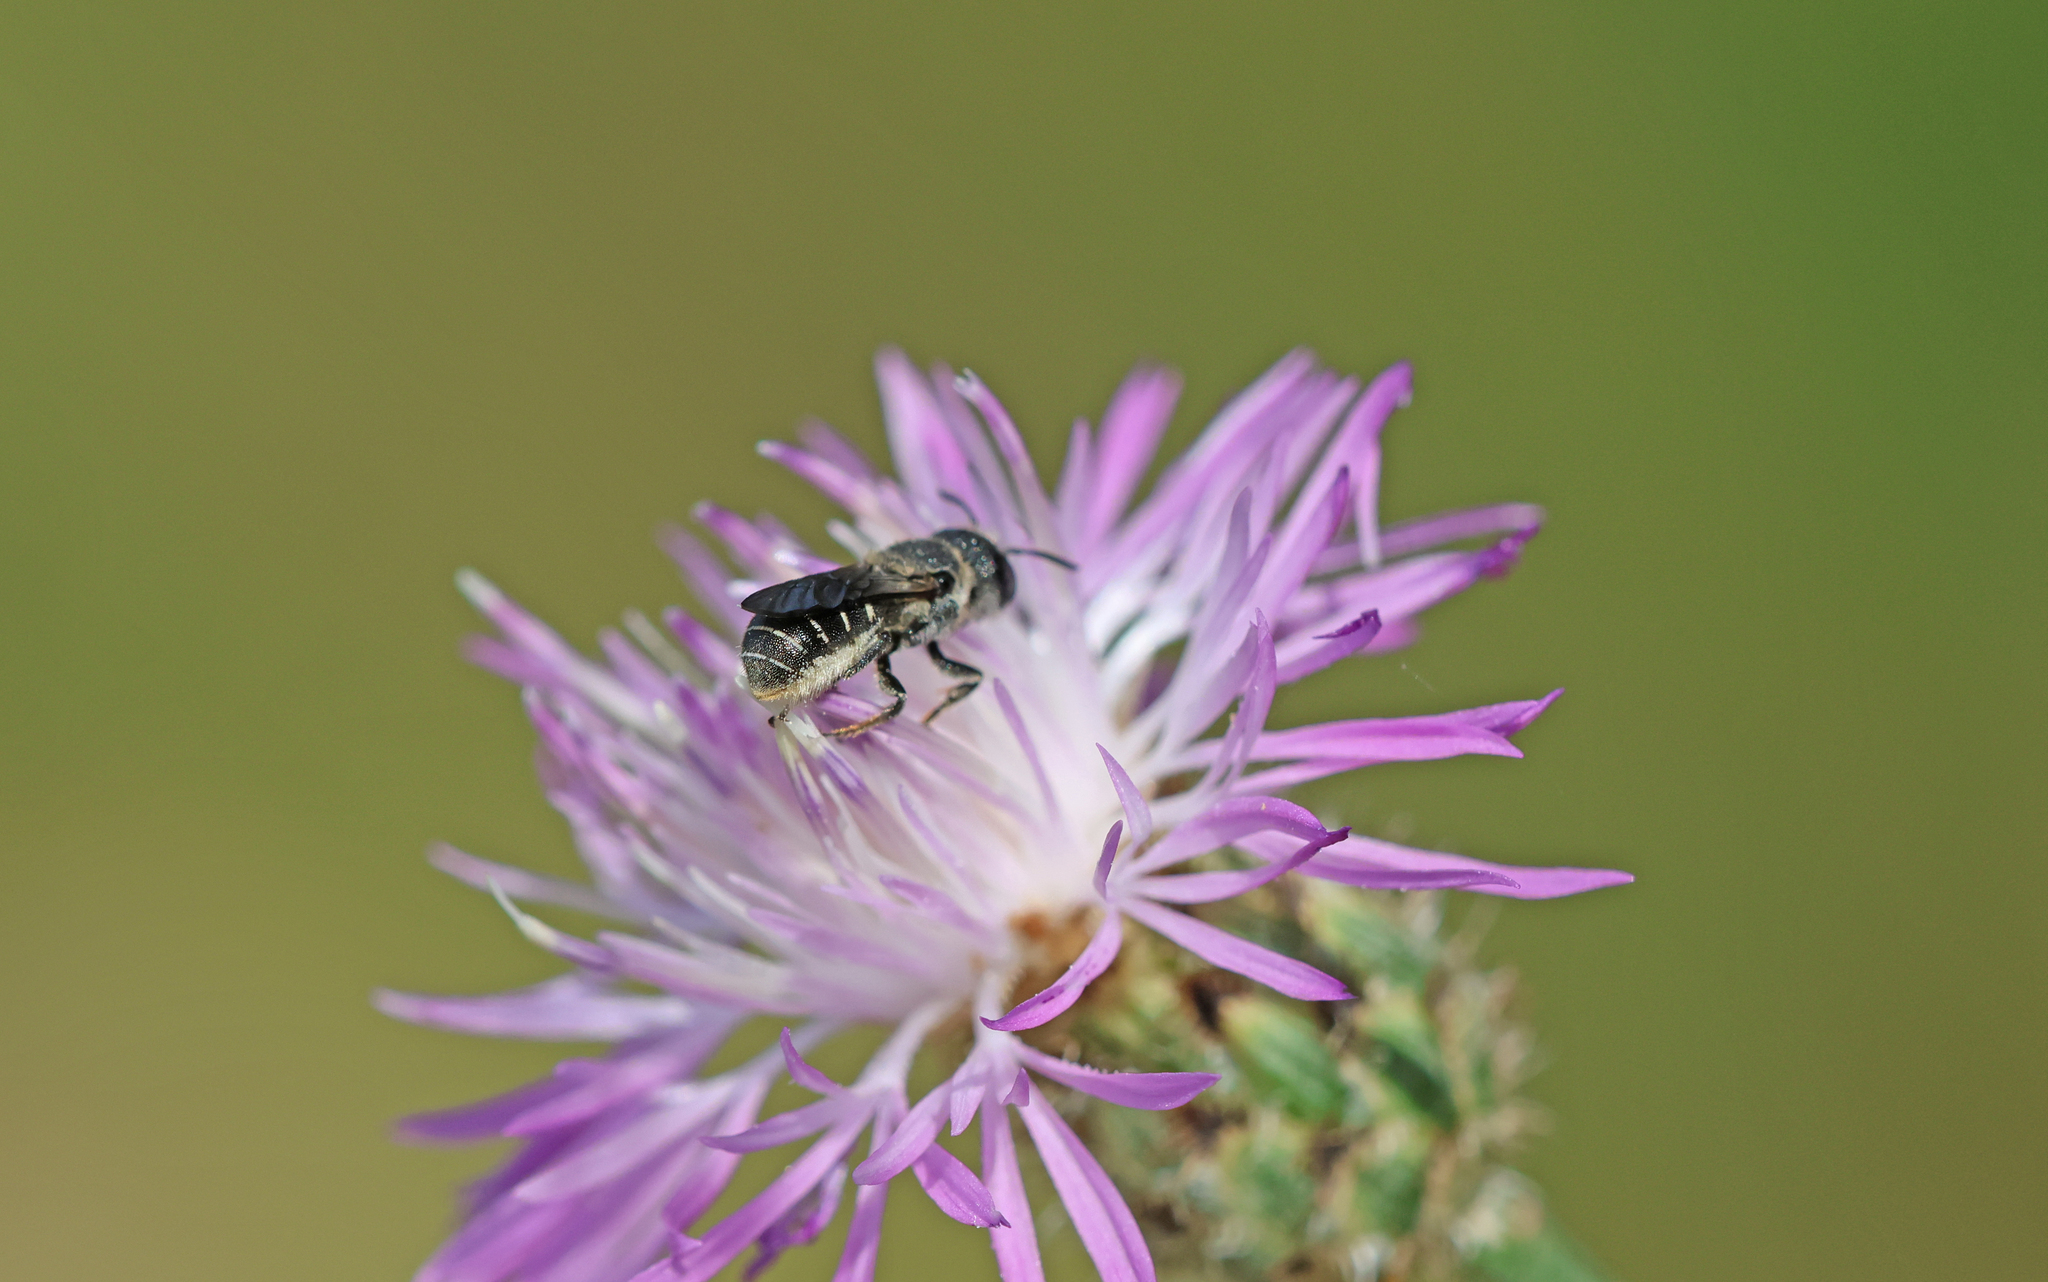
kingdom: Animalia
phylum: Arthropoda
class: Insecta
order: Hymenoptera
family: Megachilidae
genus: Heriades
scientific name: Heriades crenulata
